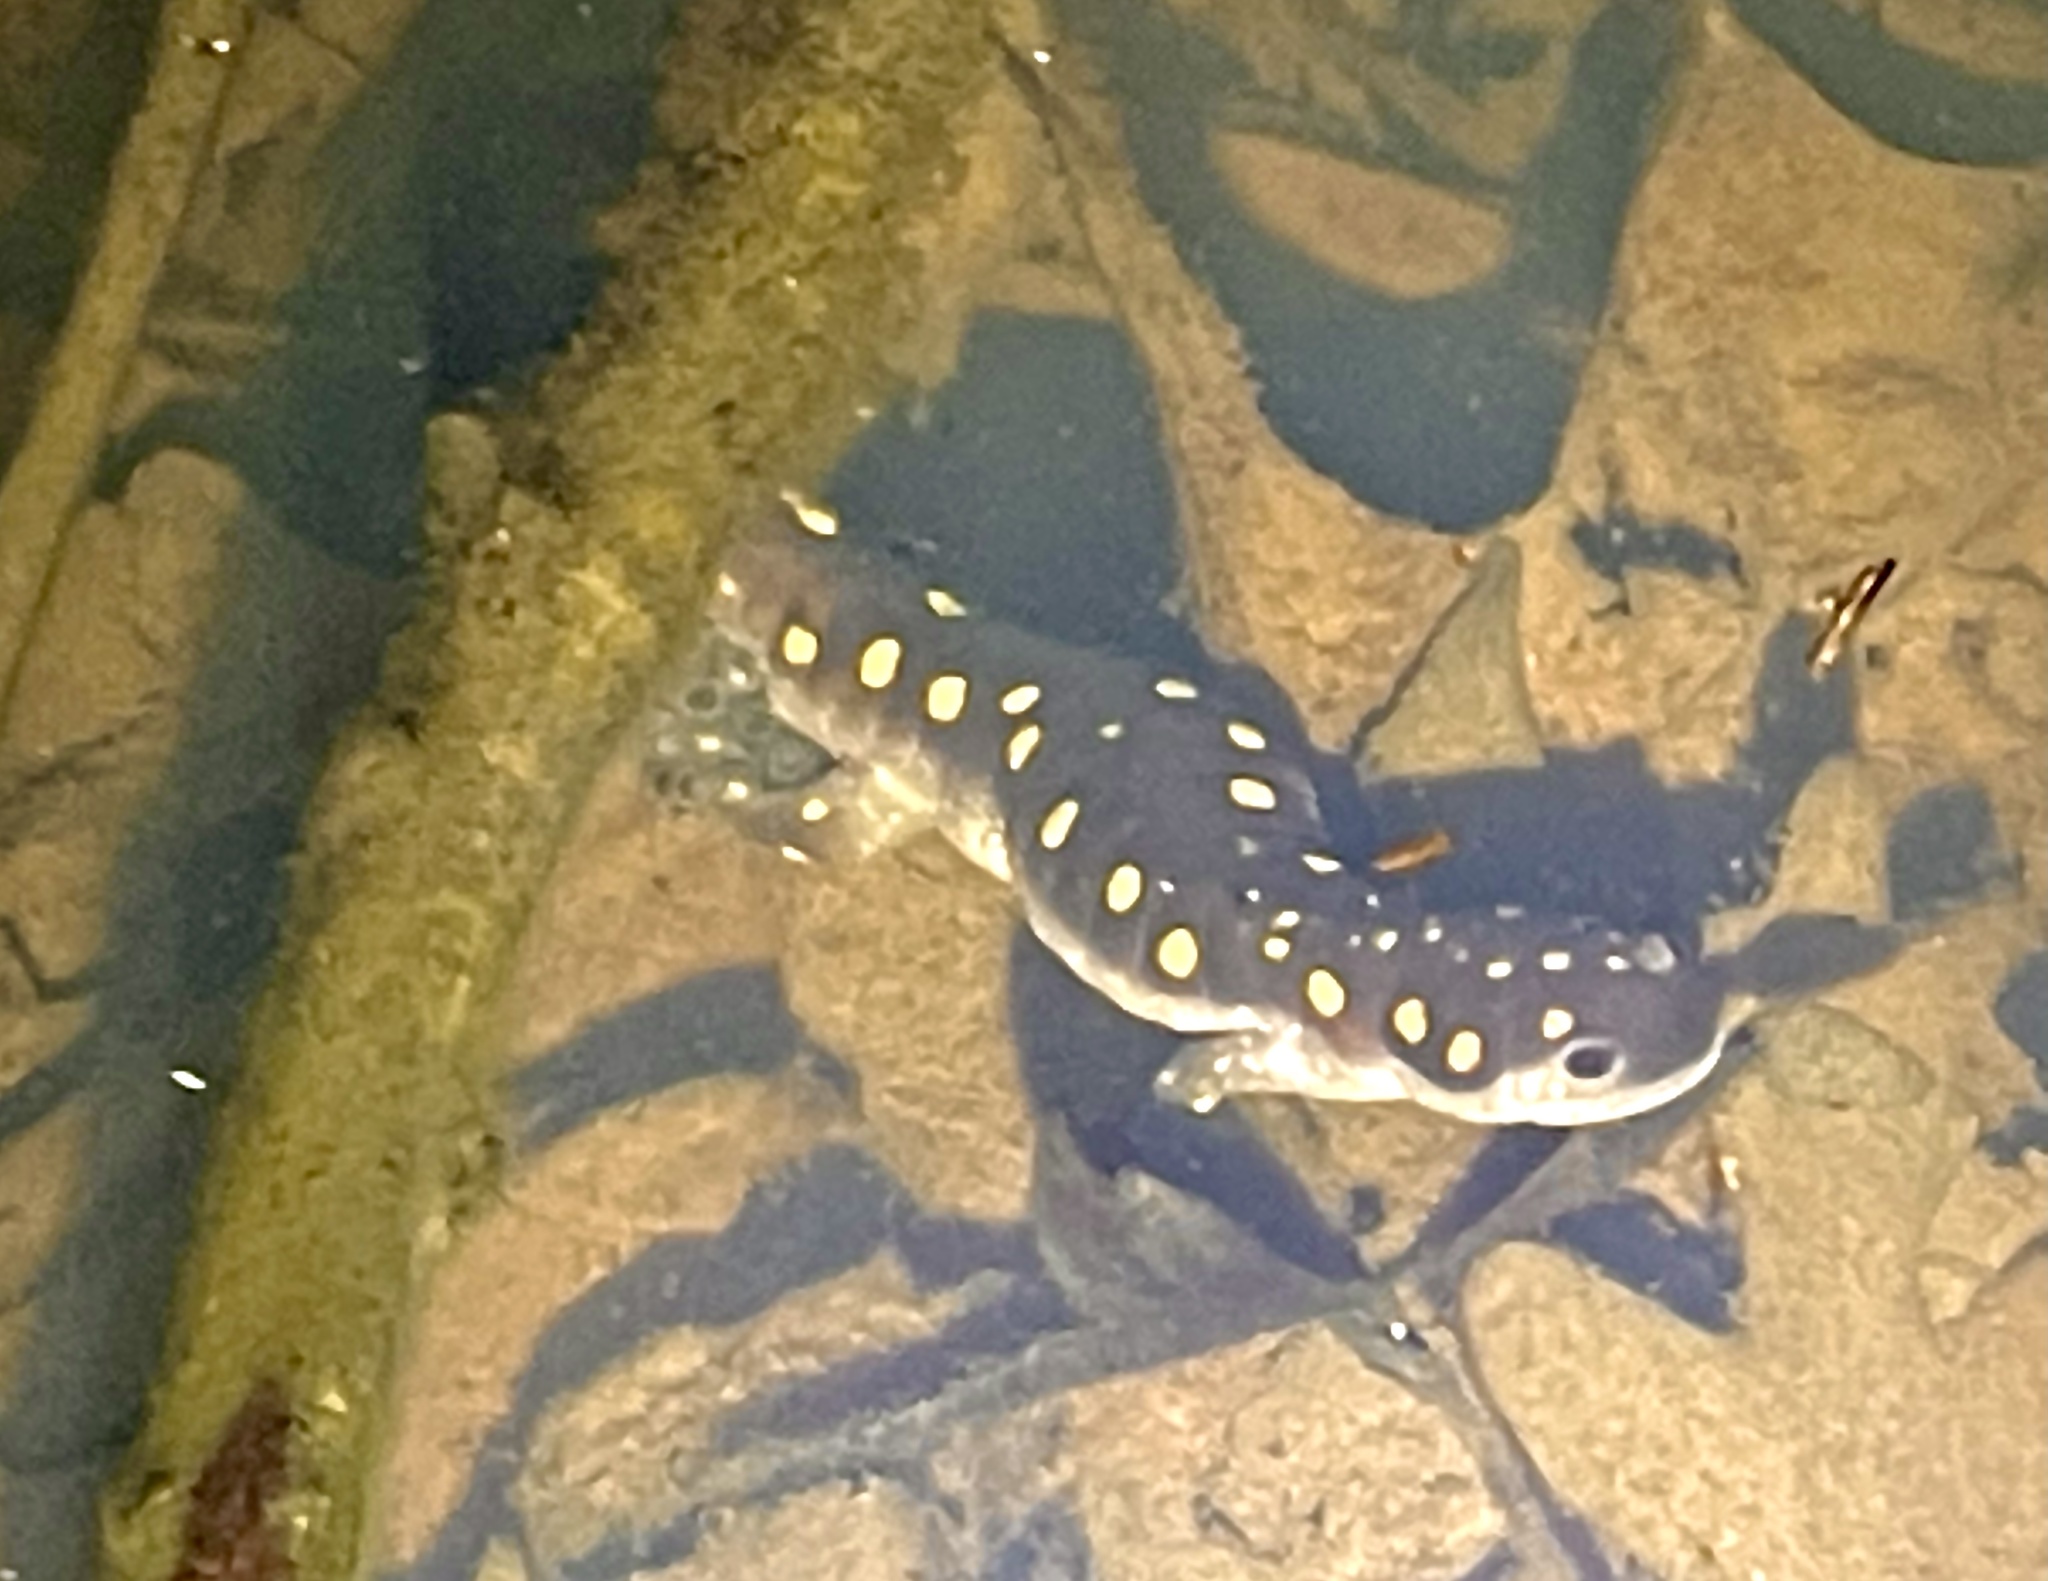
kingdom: Animalia
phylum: Chordata
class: Amphibia
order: Caudata
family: Ambystomatidae
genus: Ambystoma
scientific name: Ambystoma maculatum
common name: Spotted salamander
